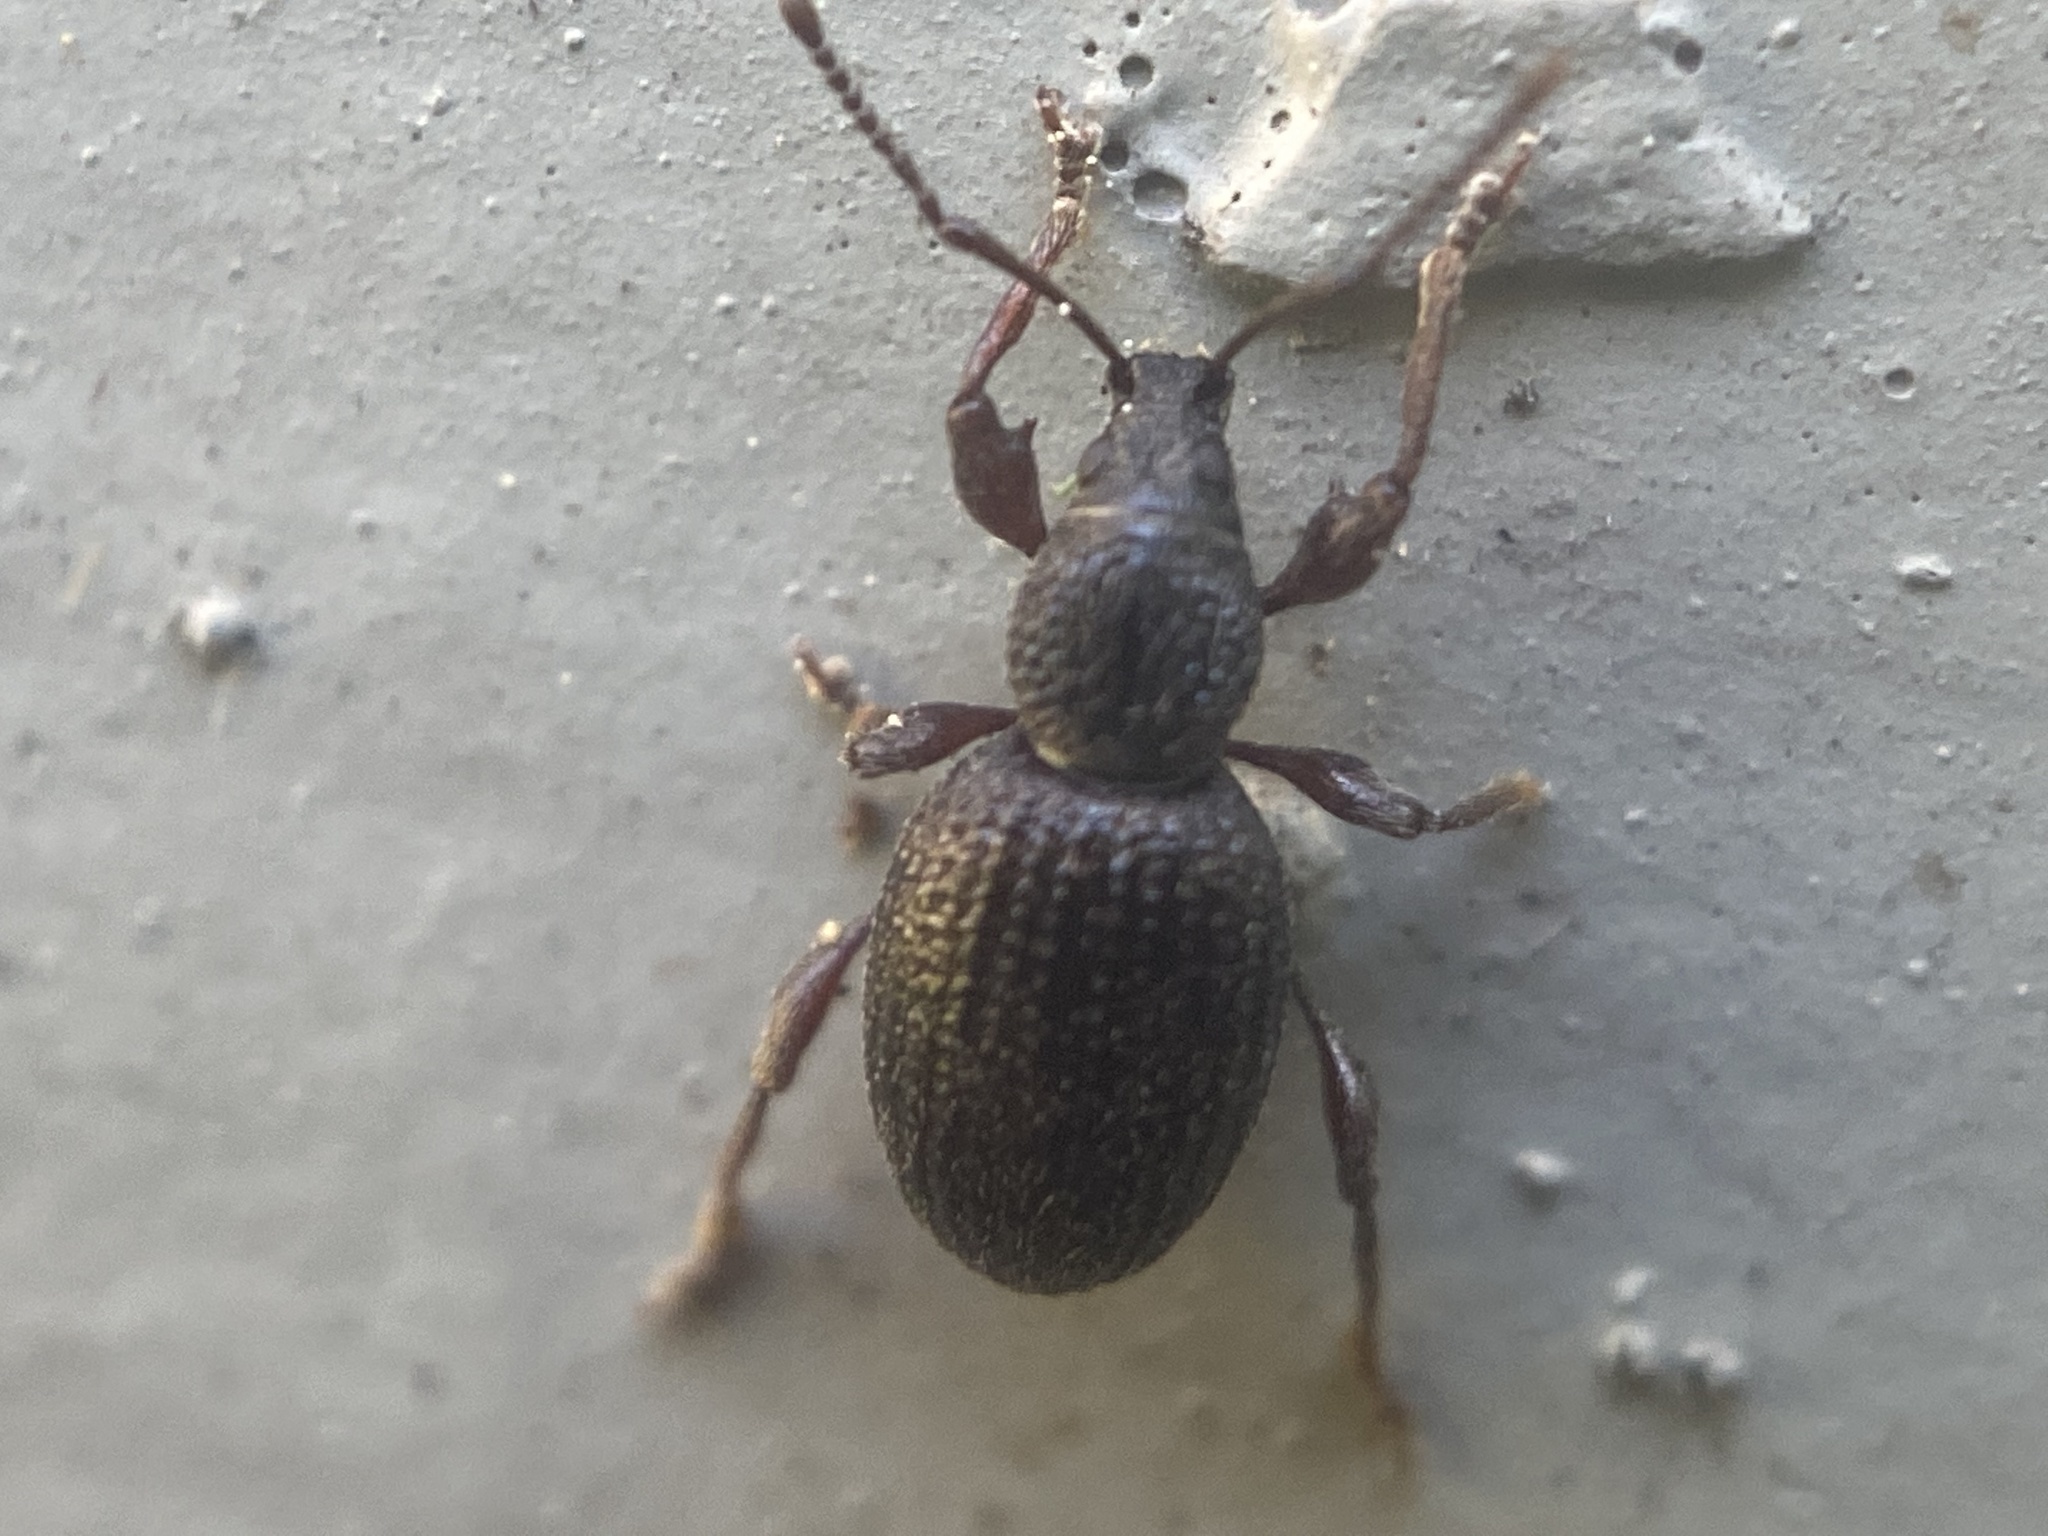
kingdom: Animalia
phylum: Arthropoda
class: Insecta
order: Coleoptera
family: Curculionidae
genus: Otiorhynchus
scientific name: Otiorhynchus ovatus
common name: Strawberry root weevil
